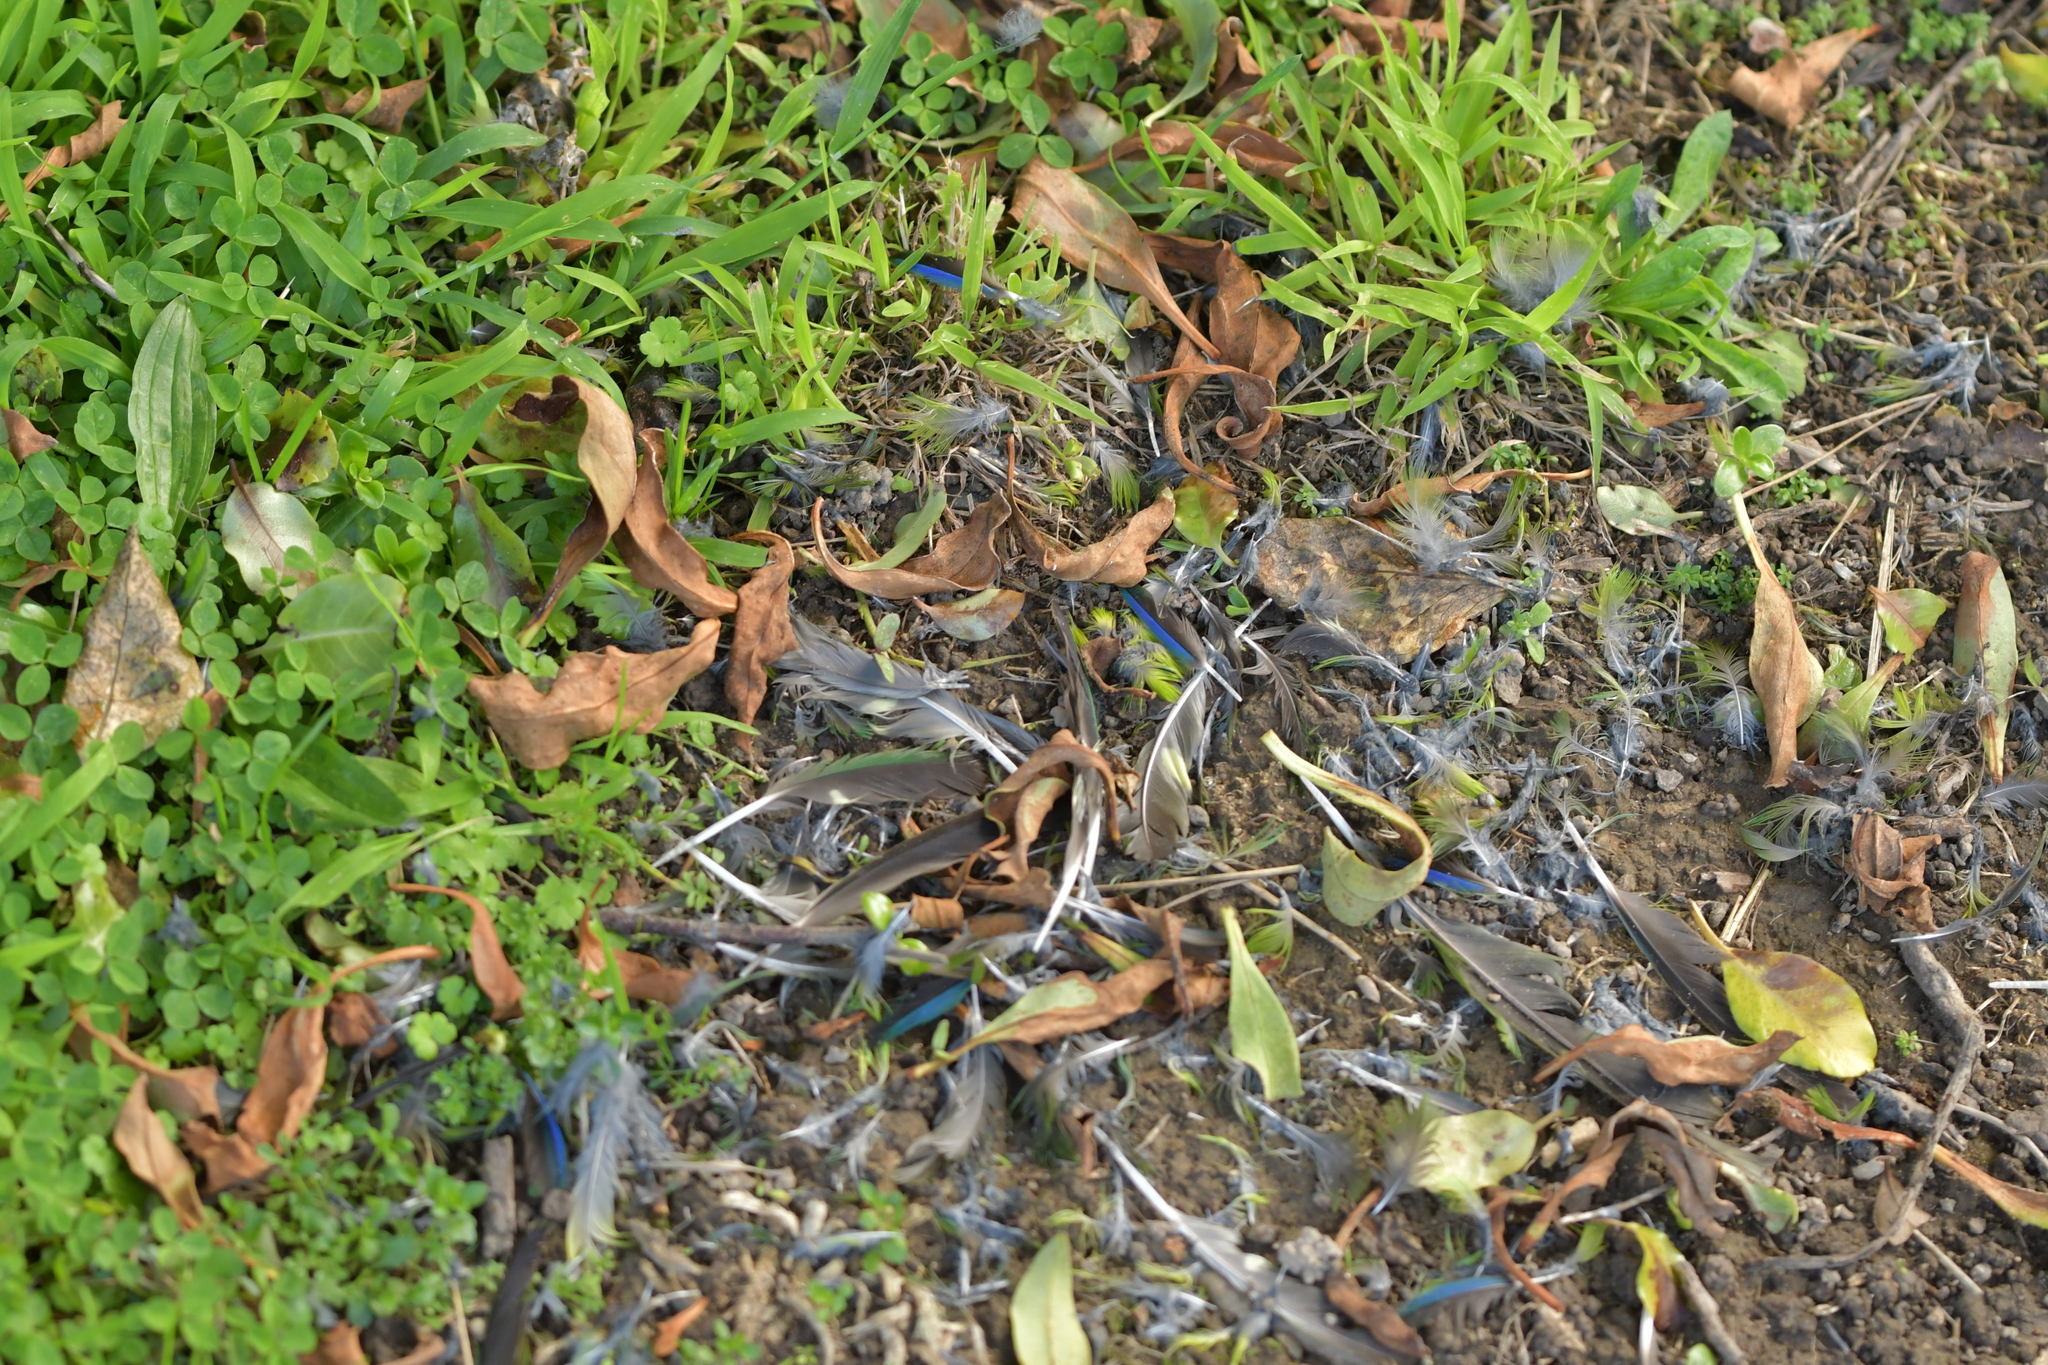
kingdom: Animalia
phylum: Chordata
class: Aves
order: Psittaciformes
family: Psittacidae
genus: Cyanoramphus
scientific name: Cyanoramphus novaezelandiae
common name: Red-fronted parakeet
